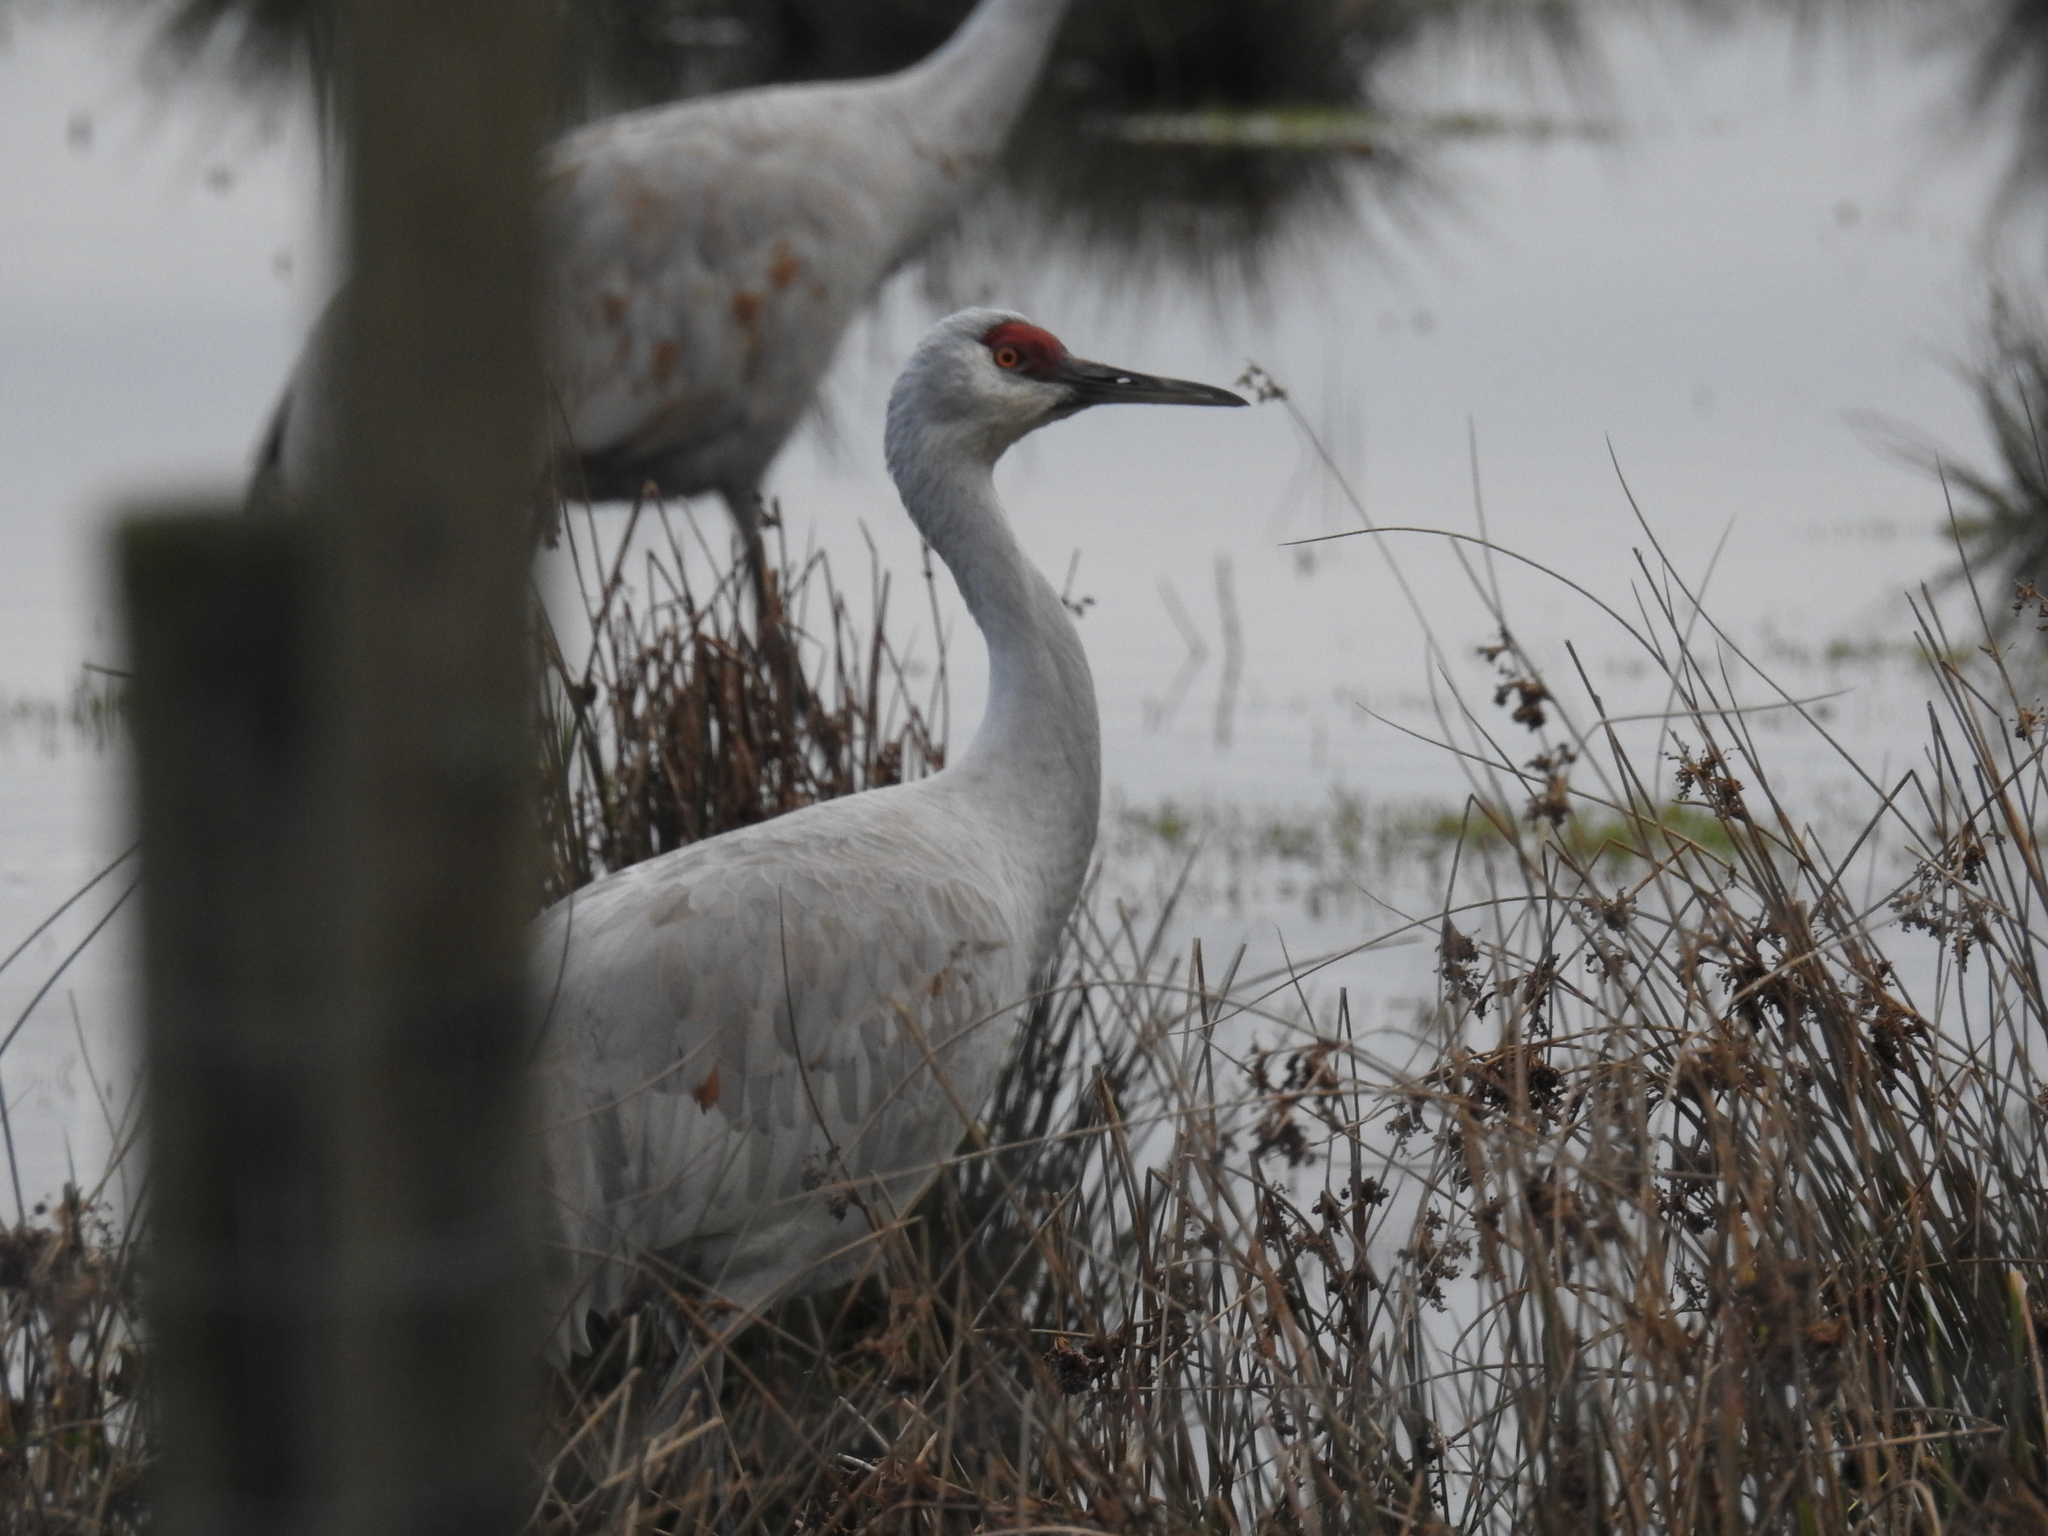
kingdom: Animalia
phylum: Chordata
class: Aves
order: Gruiformes
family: Gruidae
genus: Grus
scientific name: Grus canadensis
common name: Sandhill crane
